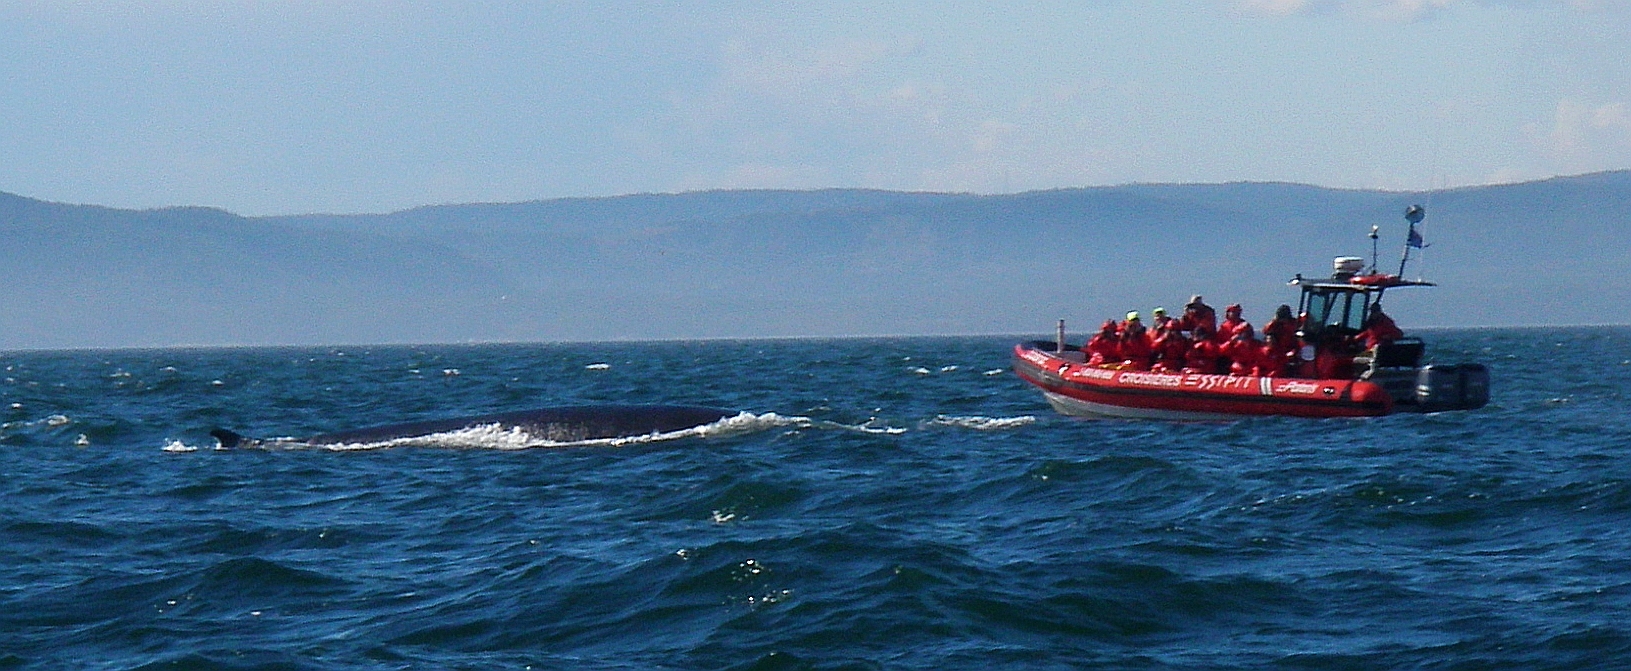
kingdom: Animalia
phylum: Chordata
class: Mammalia
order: Cetacea
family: Balaenopteridae
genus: Balaenoptera
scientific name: Balaenoptera physalus
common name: Fin whale
